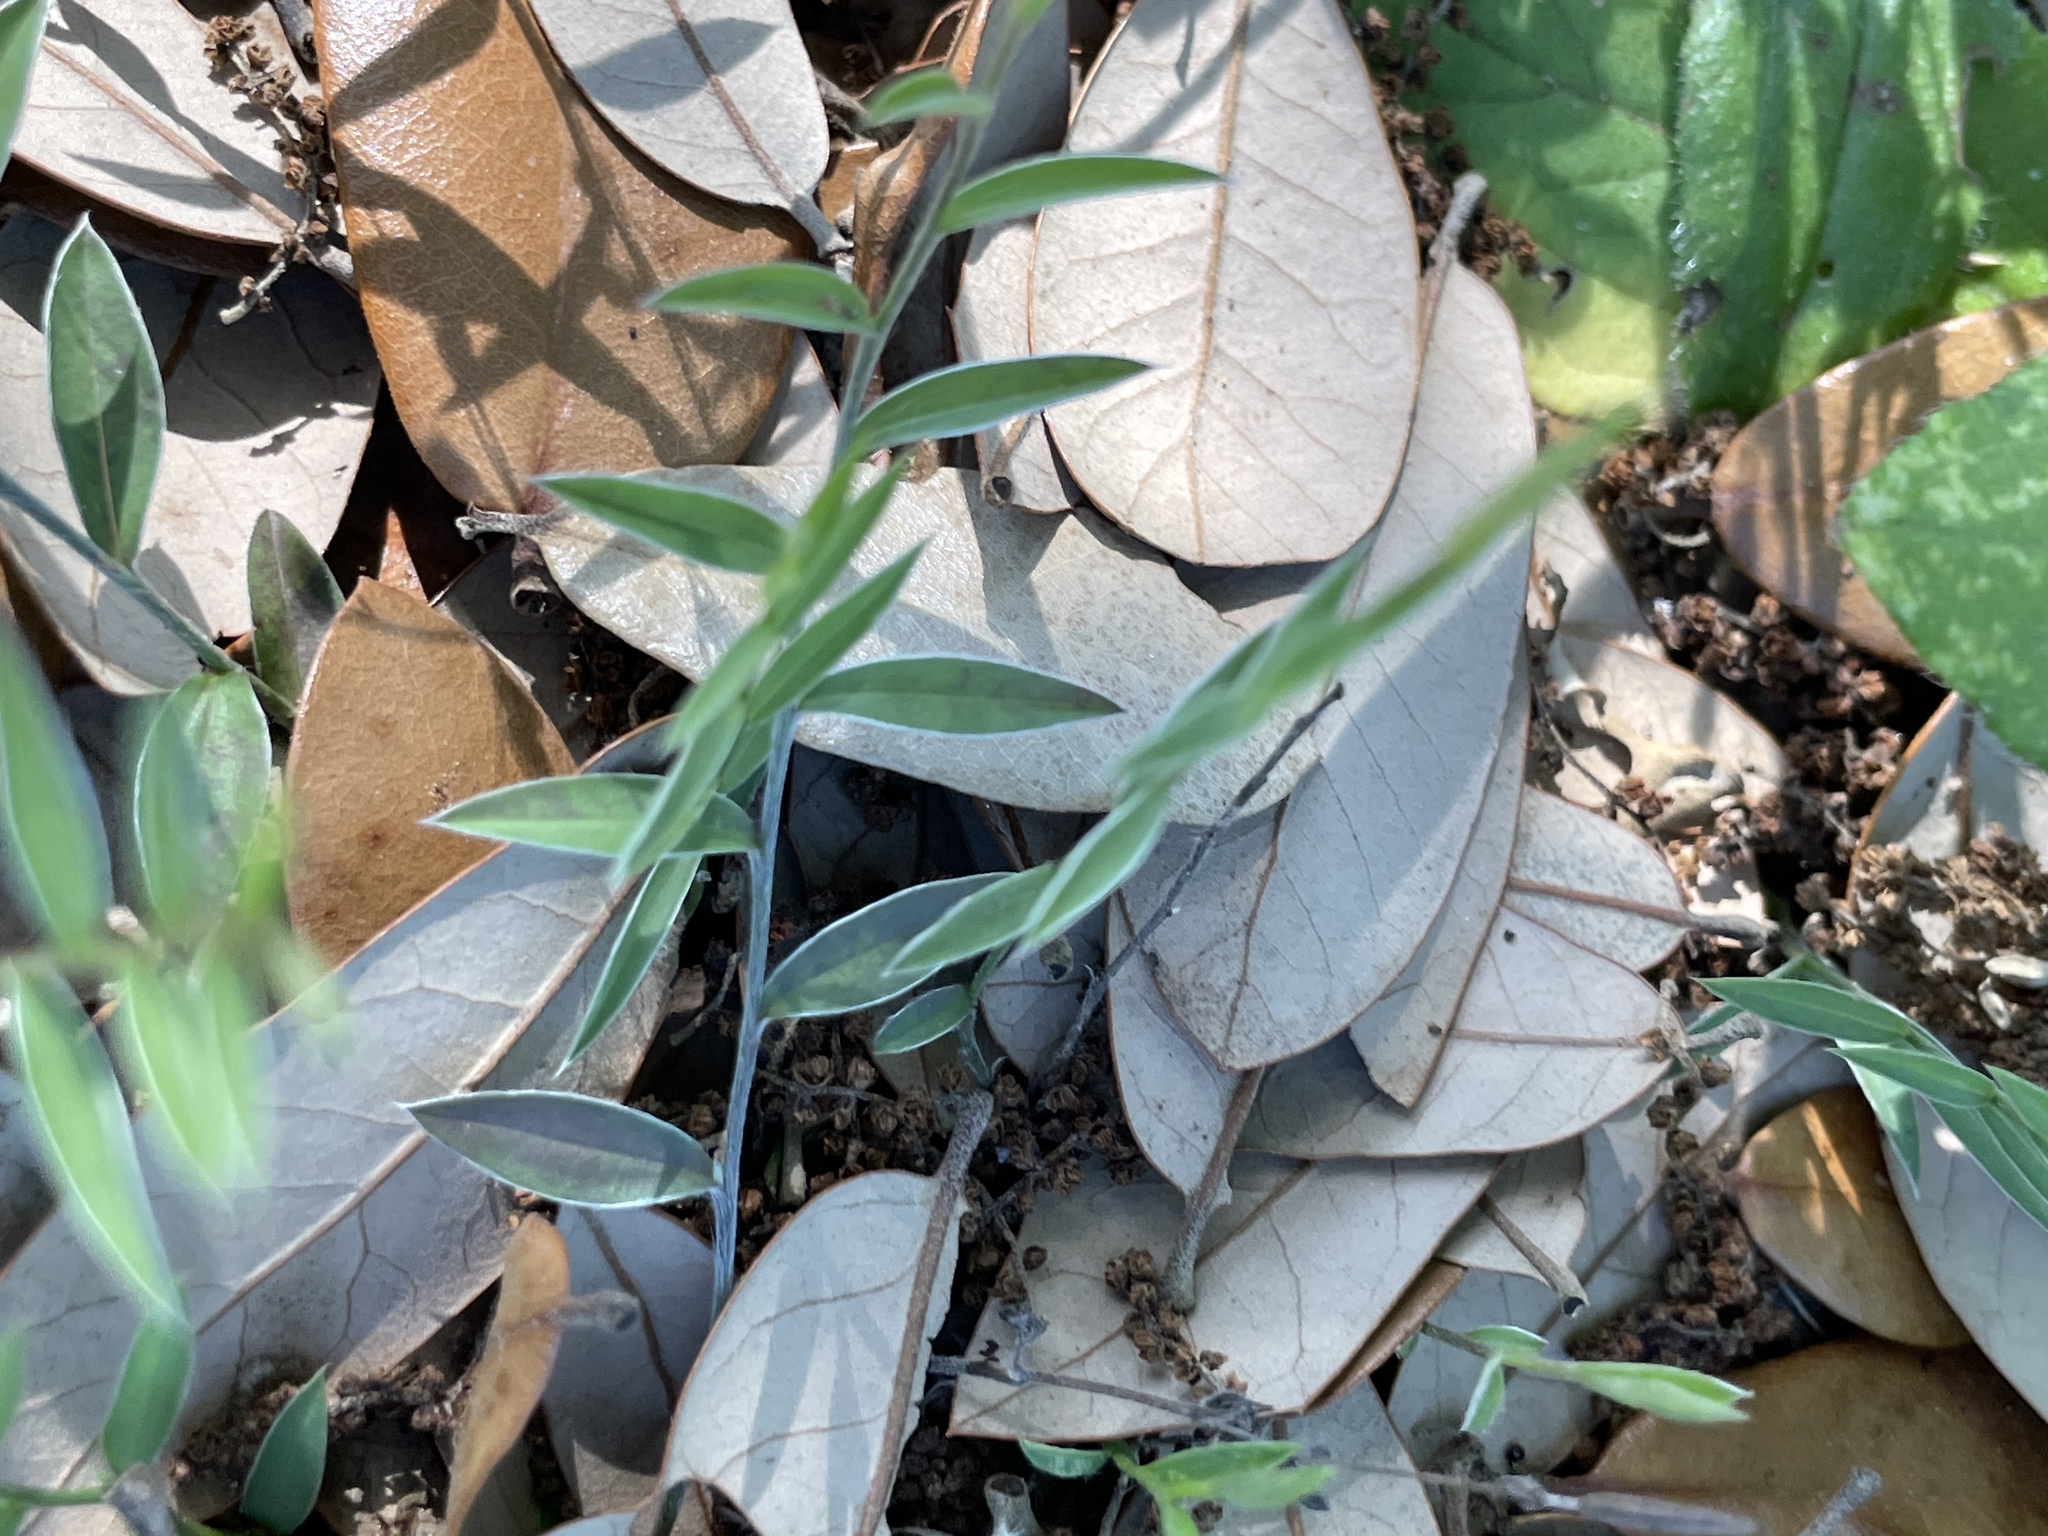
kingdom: Plantae
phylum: Tracheophyta
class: Magnoliopsida
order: Solanales
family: Convolvulaceae
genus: Evolvulus
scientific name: Evolvulus sericeus
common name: Blue dots
